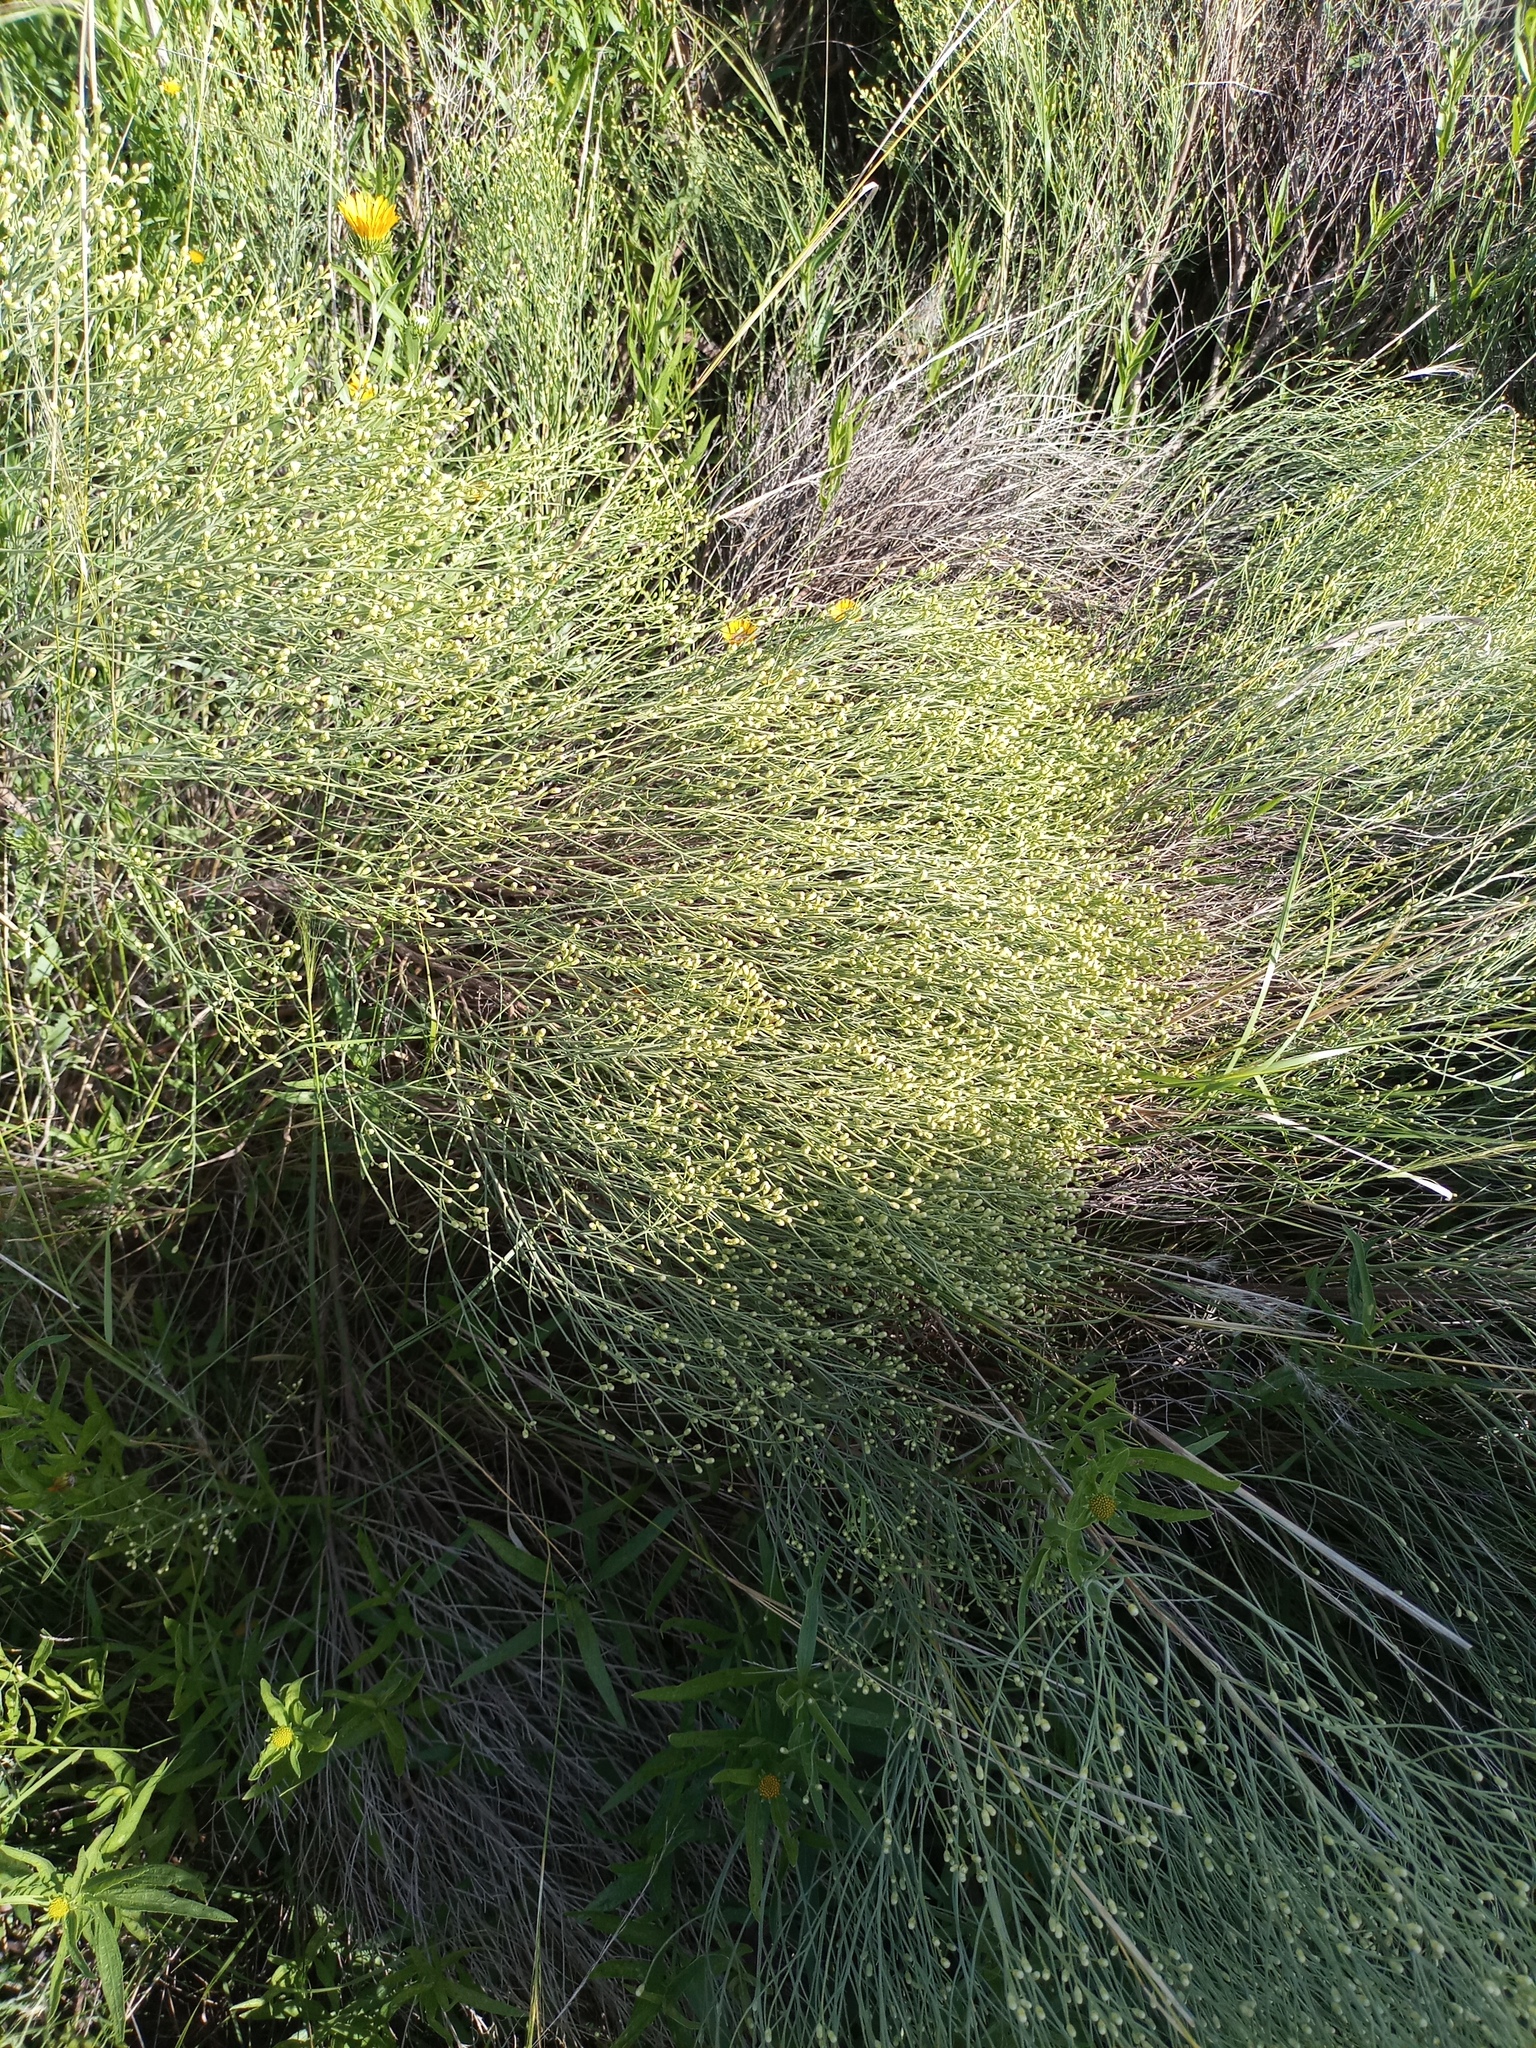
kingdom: Plantae
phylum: Tracheophyta
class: Magnoliopsida
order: Asterales
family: Asteraceae
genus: Baccharis
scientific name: Baccharis notosergila
